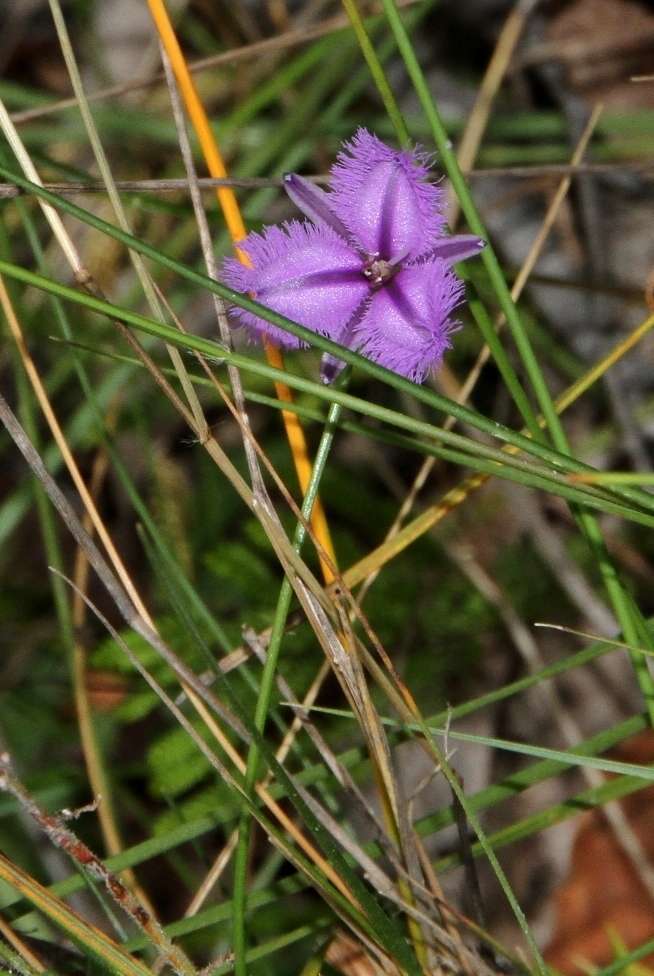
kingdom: Plantae
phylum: Tracheophyta
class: Liliopsida
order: Asparagales
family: Asparagaceae
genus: Thysanotus
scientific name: Thysanotus juncifolius
